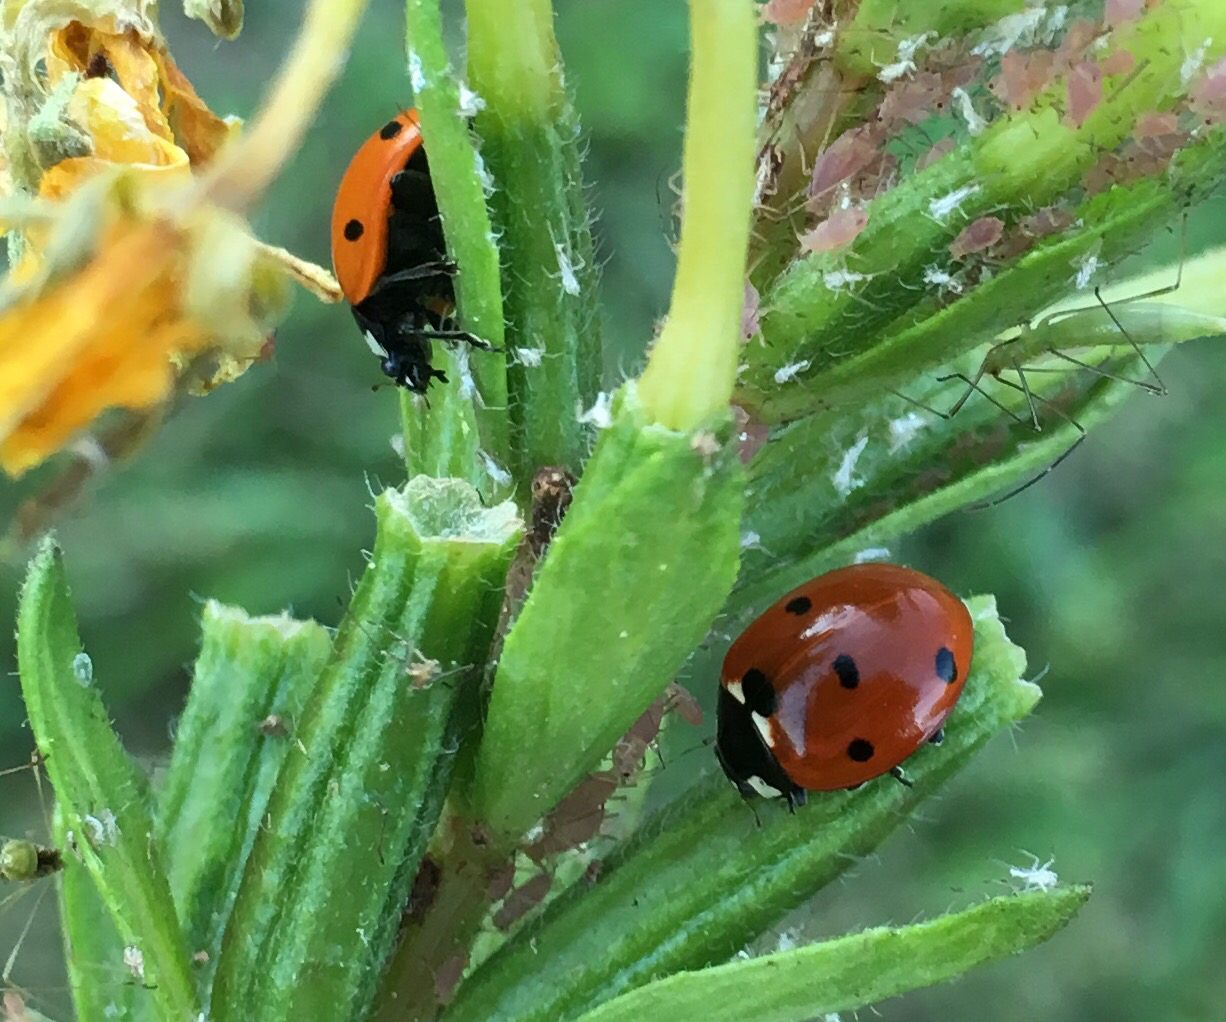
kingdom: Animalia
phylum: Arthropoda
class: Insecta
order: Coleoptera
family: Coccinellidae
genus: Coccinella
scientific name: Coccinella septempunctata
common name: Sevenspotted lady beetle
